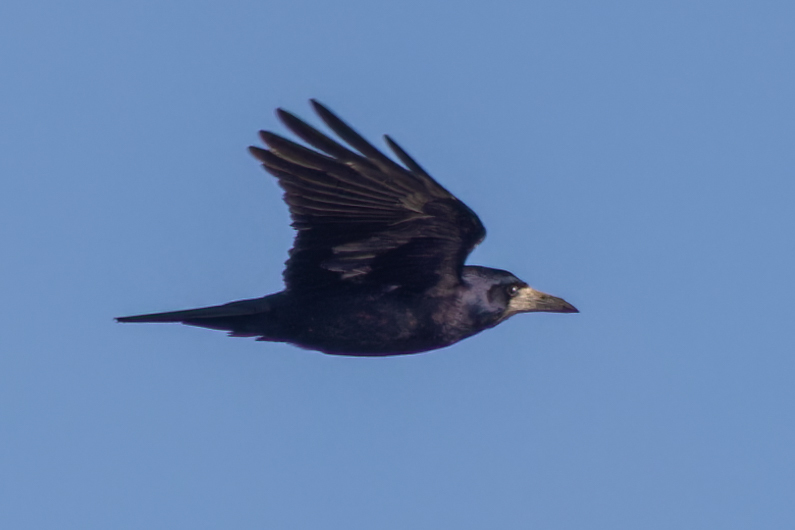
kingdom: Animalia
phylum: Chordata
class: Aves
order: Passeriformes
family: Corvidae
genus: Corvus
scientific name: Corvus frugilegus
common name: Rook
